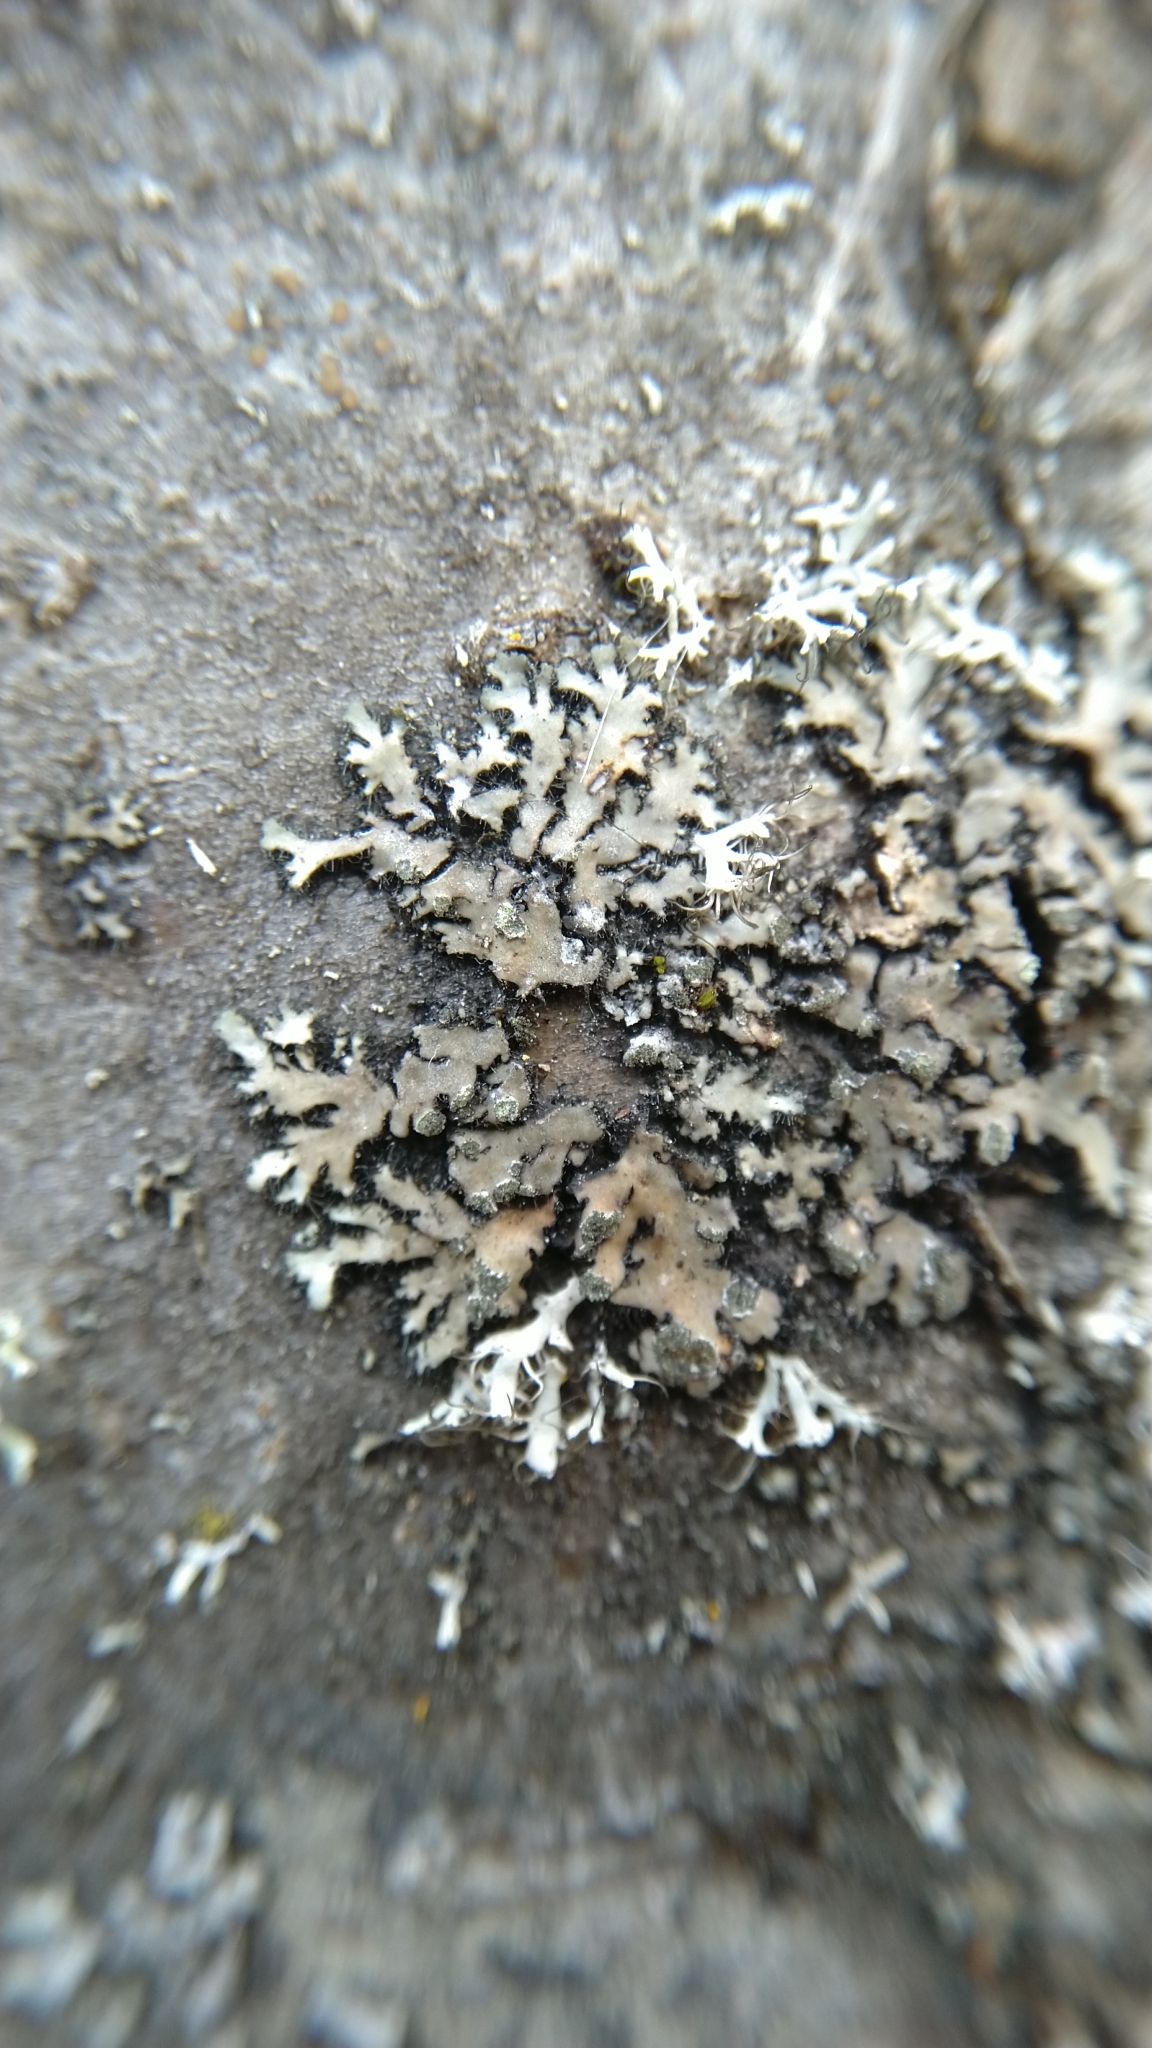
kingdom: Fungi
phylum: Ascomycota
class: Lecanoromycetes
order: Caliciales
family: Physciaceae
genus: Phaeophyscia
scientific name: Phaeophyscia orbicularis
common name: Mealy shadow lichen
